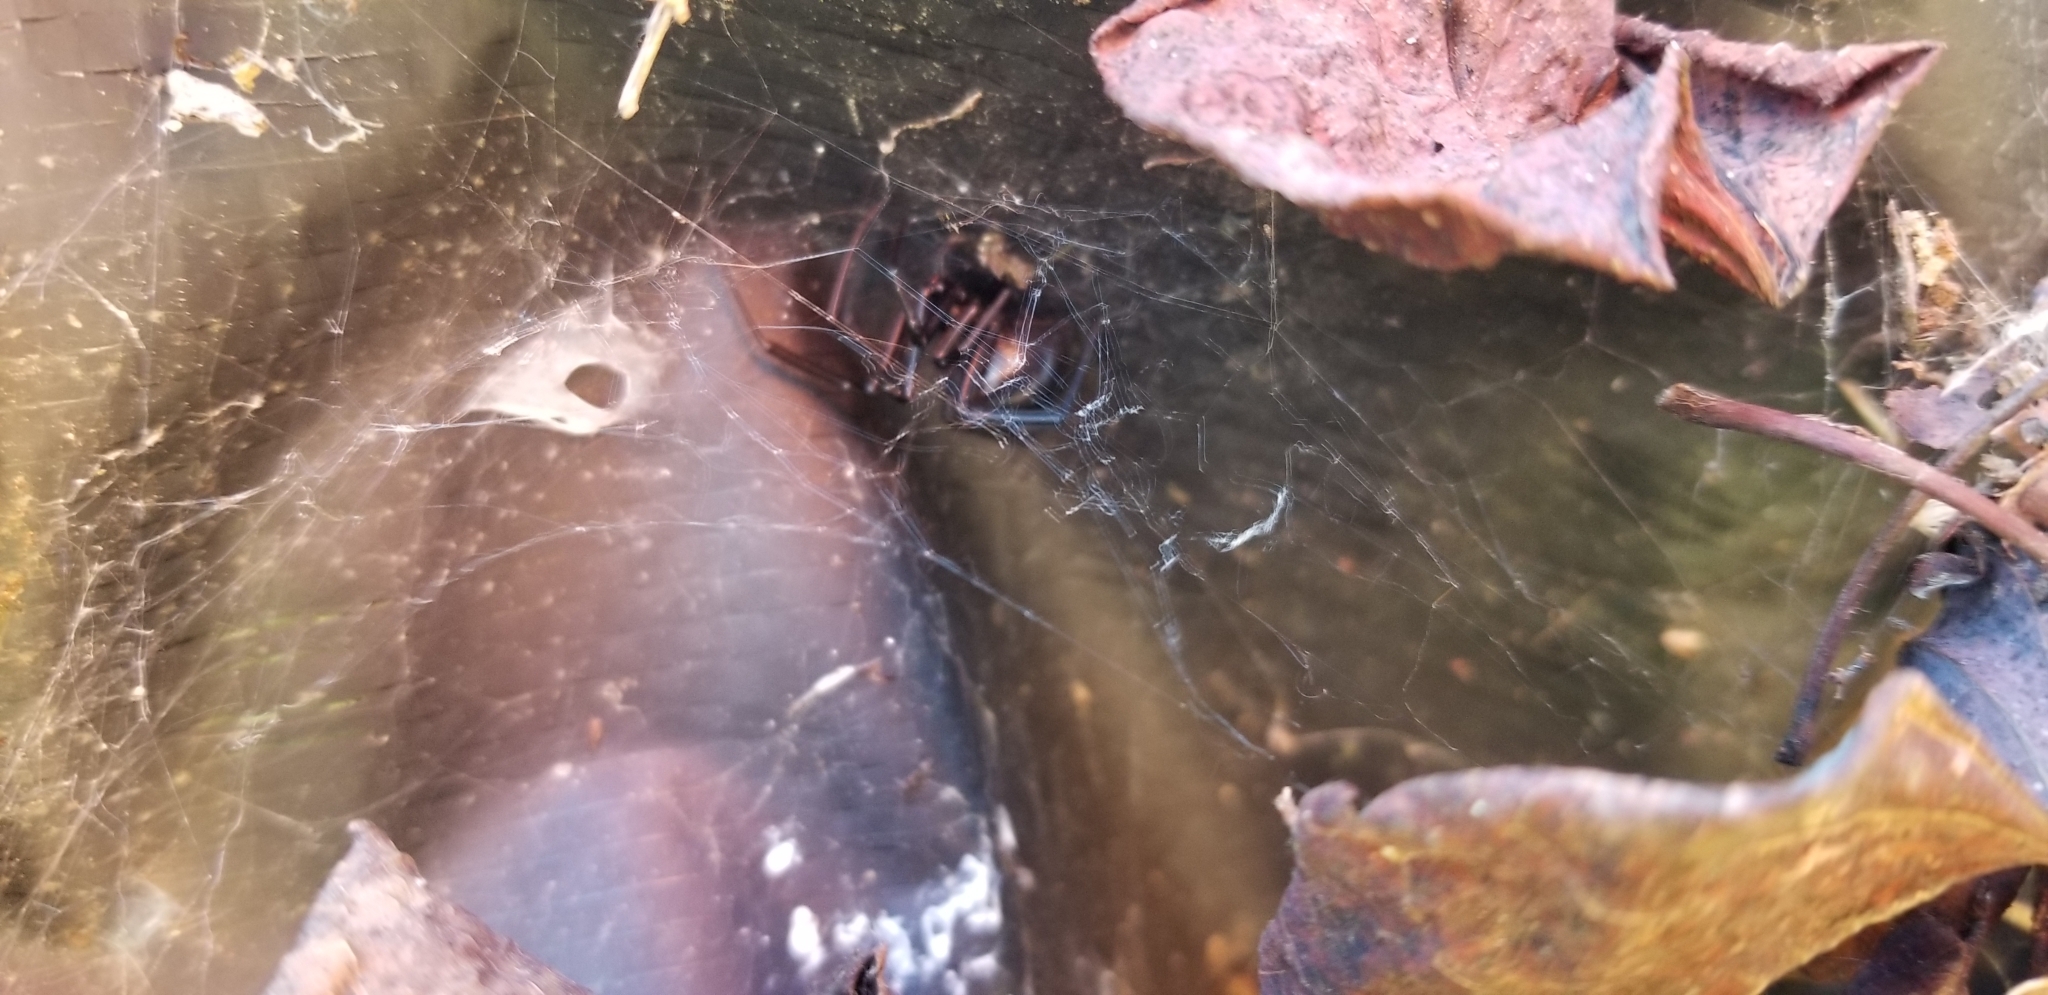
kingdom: Animalia
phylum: Arthropoda
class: Arachnida
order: Araneae
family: Theridiidae
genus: Latrodectus
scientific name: Latrodectus hesperus
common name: Western black widow
